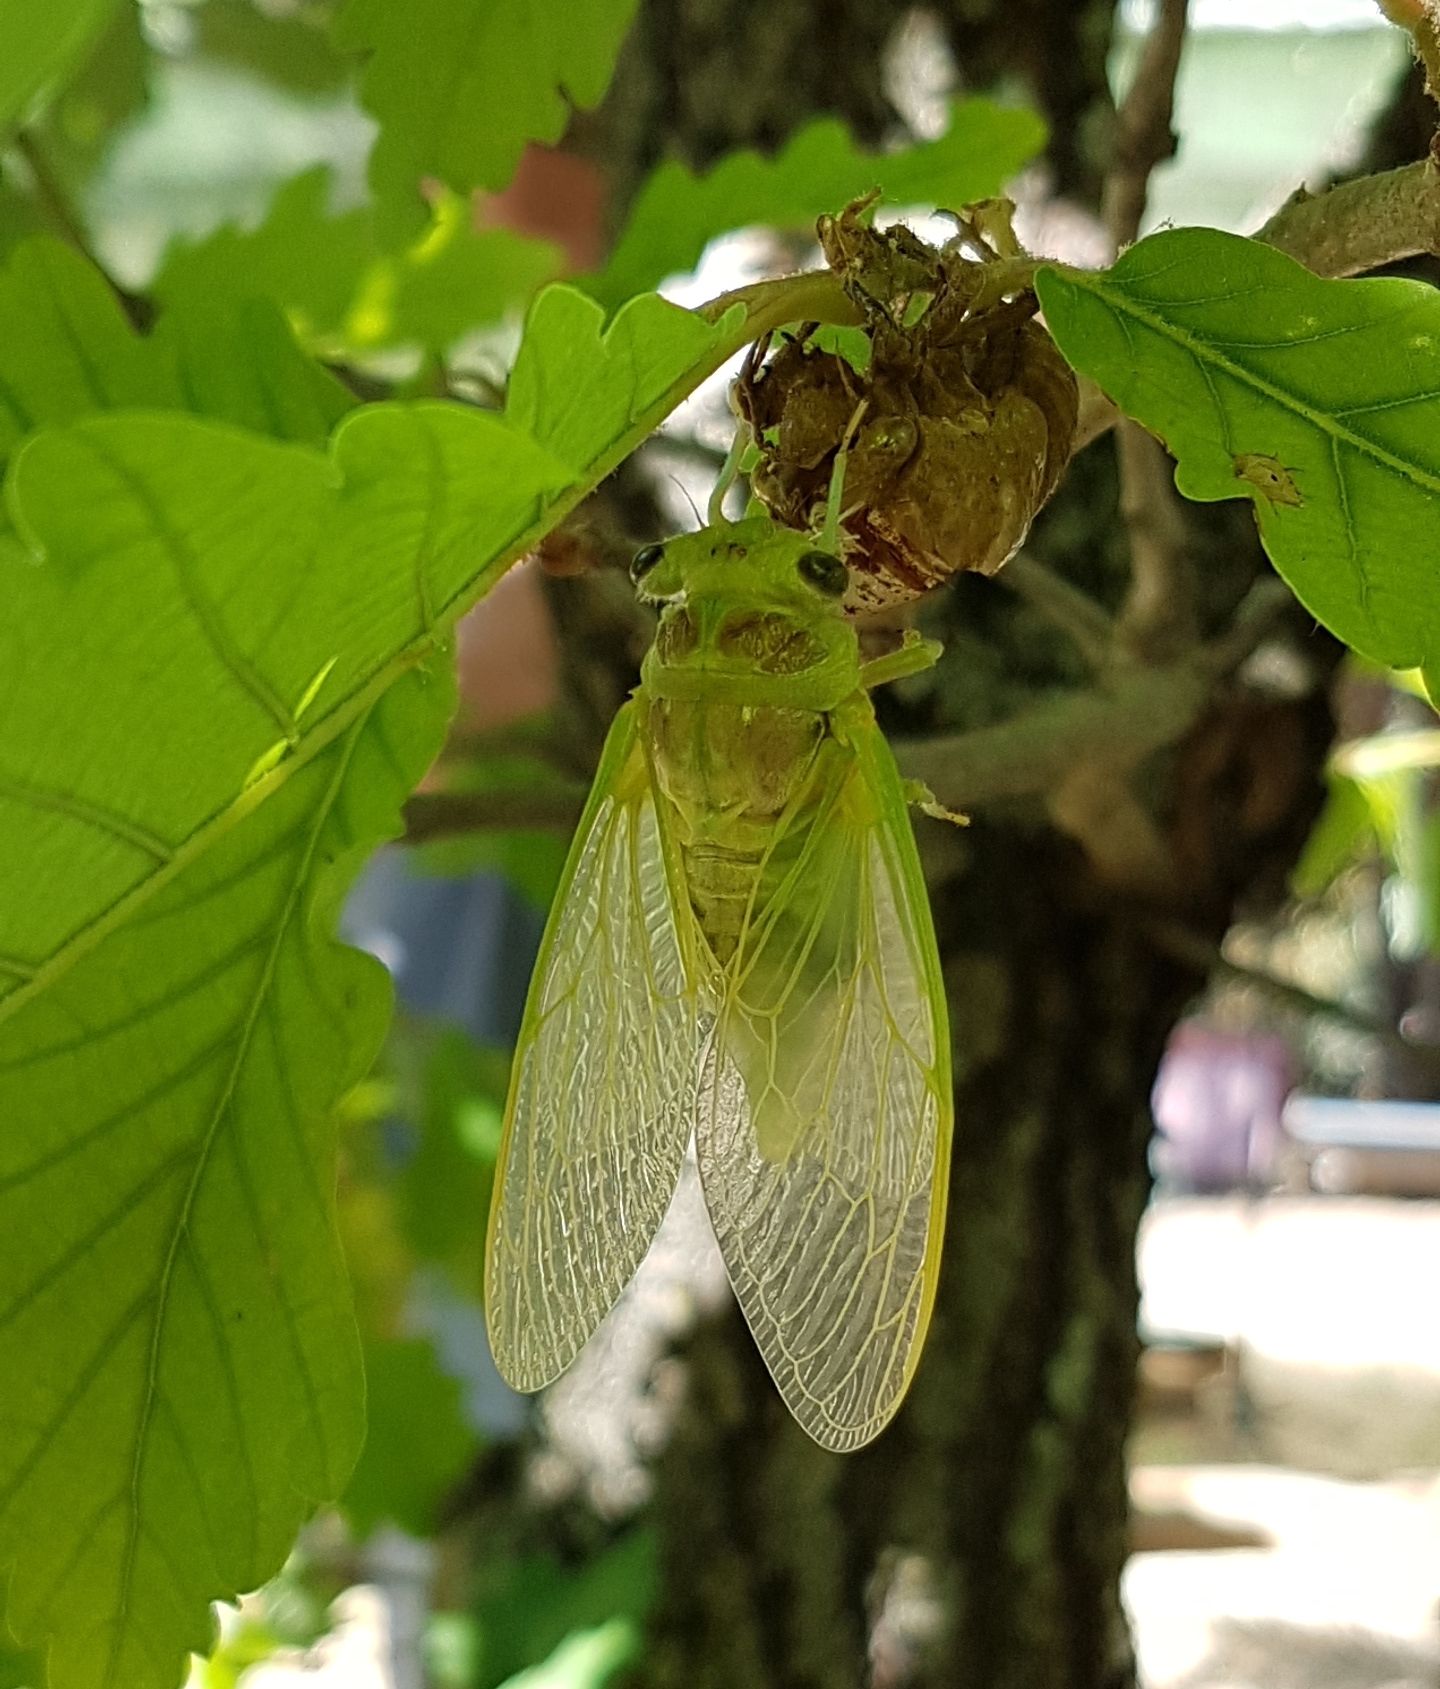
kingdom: Animalia
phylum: Arthropoda
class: Insecta
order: Hemiptera
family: Cicadidae
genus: Lyristes
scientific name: Lyristes plebejus
